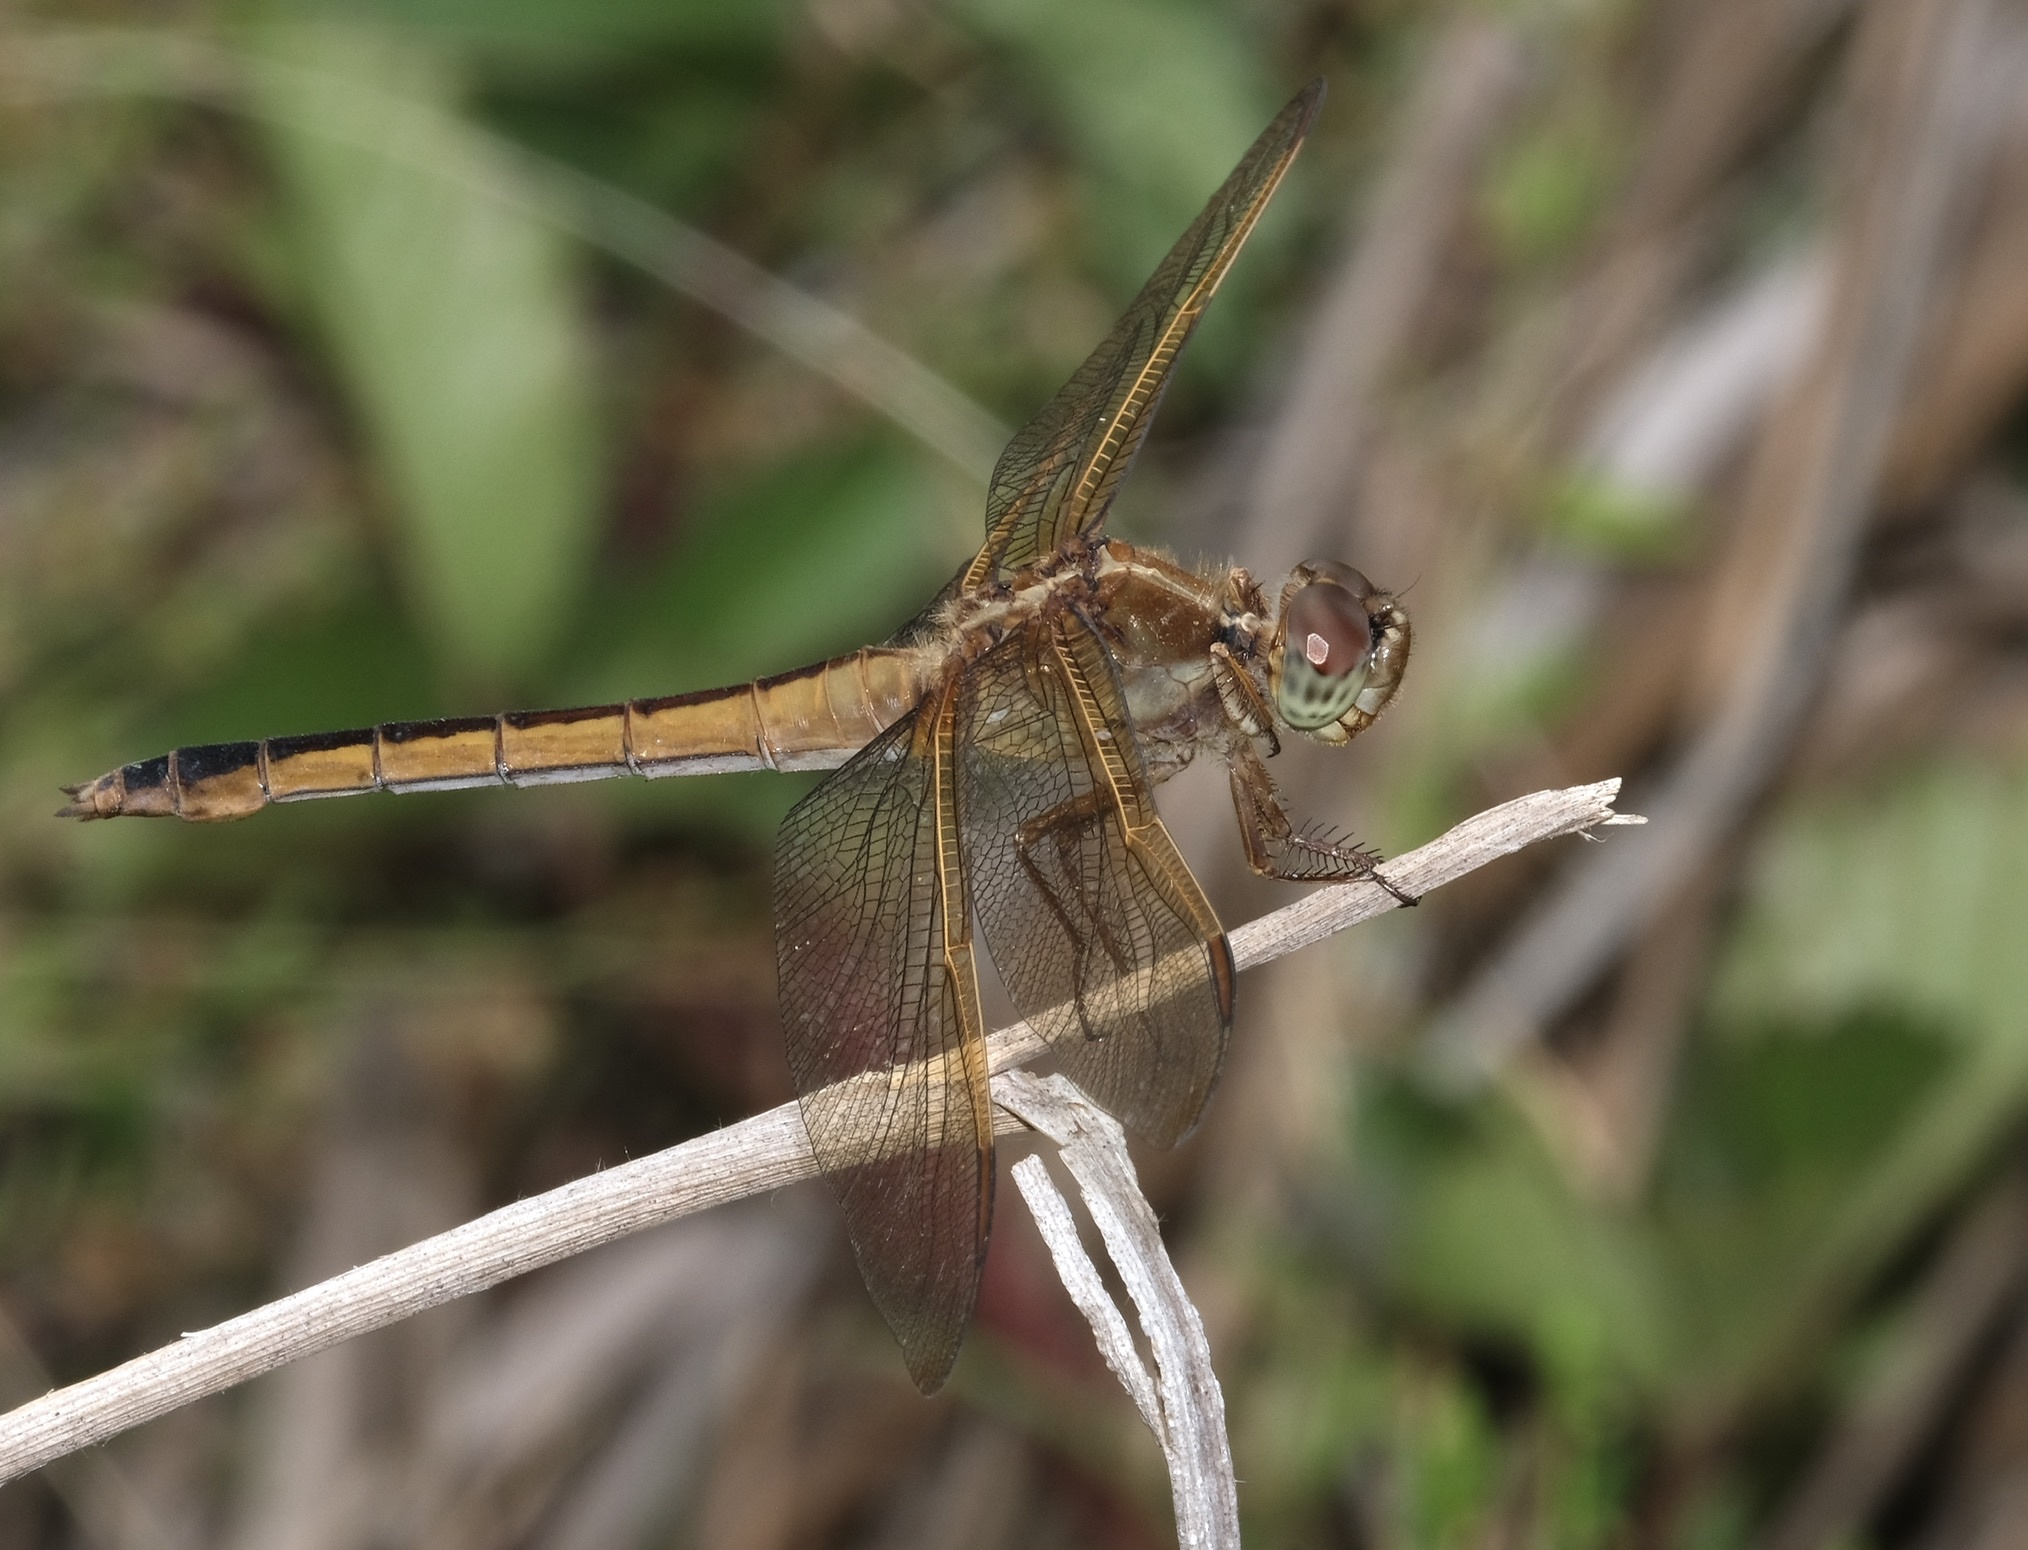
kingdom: Animalia
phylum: Arthropoda
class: Insecta
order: Odonata
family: Libellulidae
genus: Libellula
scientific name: Libellula needhami
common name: Needham's skimmer
